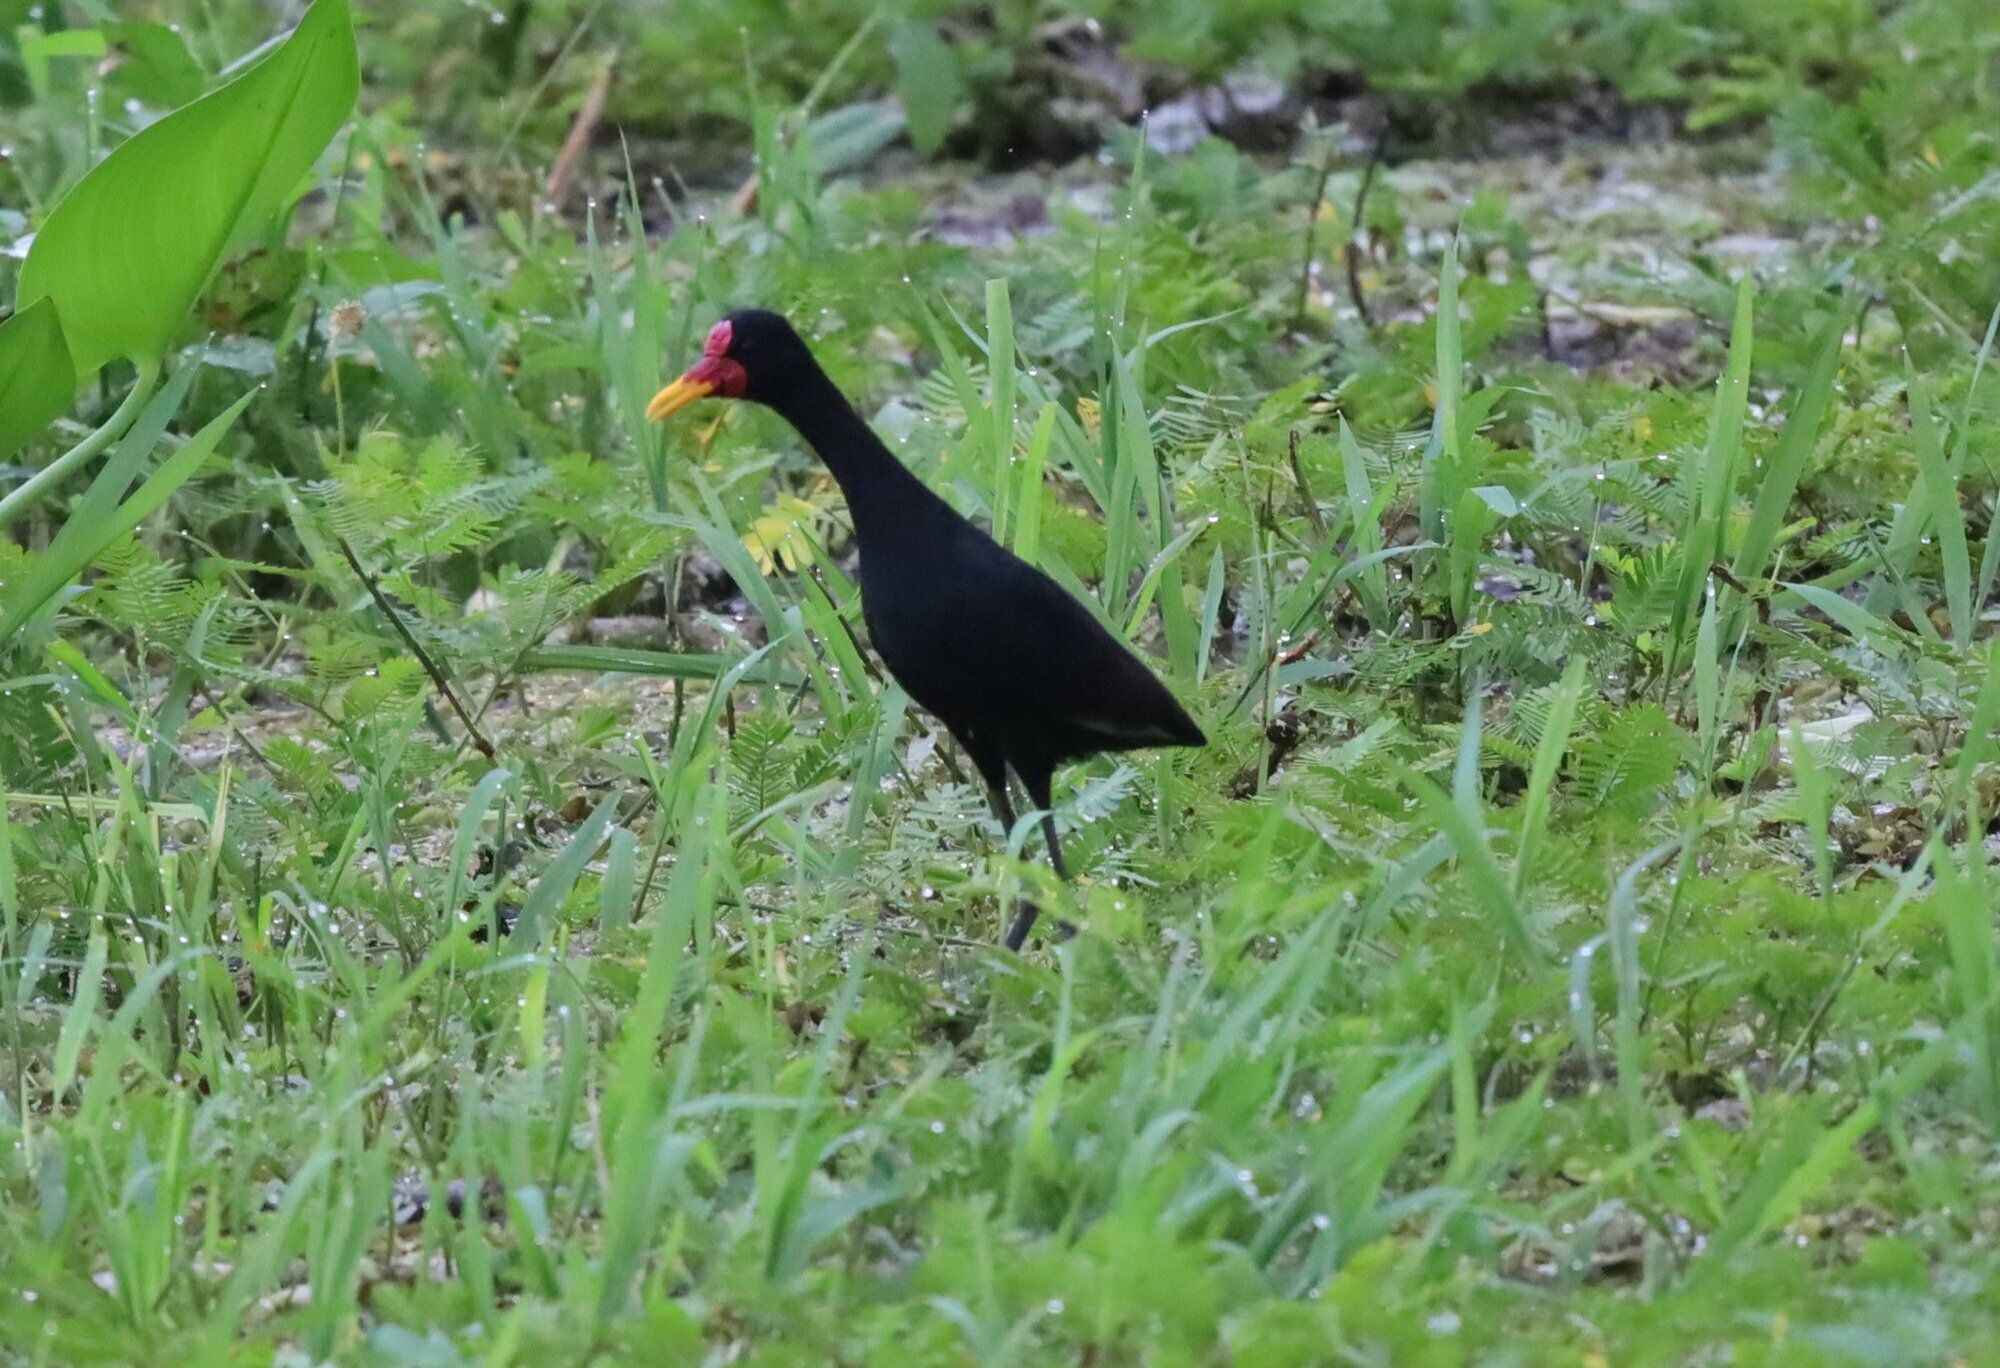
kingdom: Animalia
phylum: Chordata
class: Aves
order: Charadriiformes
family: Jacanidae
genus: Jacana
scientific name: Jacana jacana
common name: Wattled jacana
